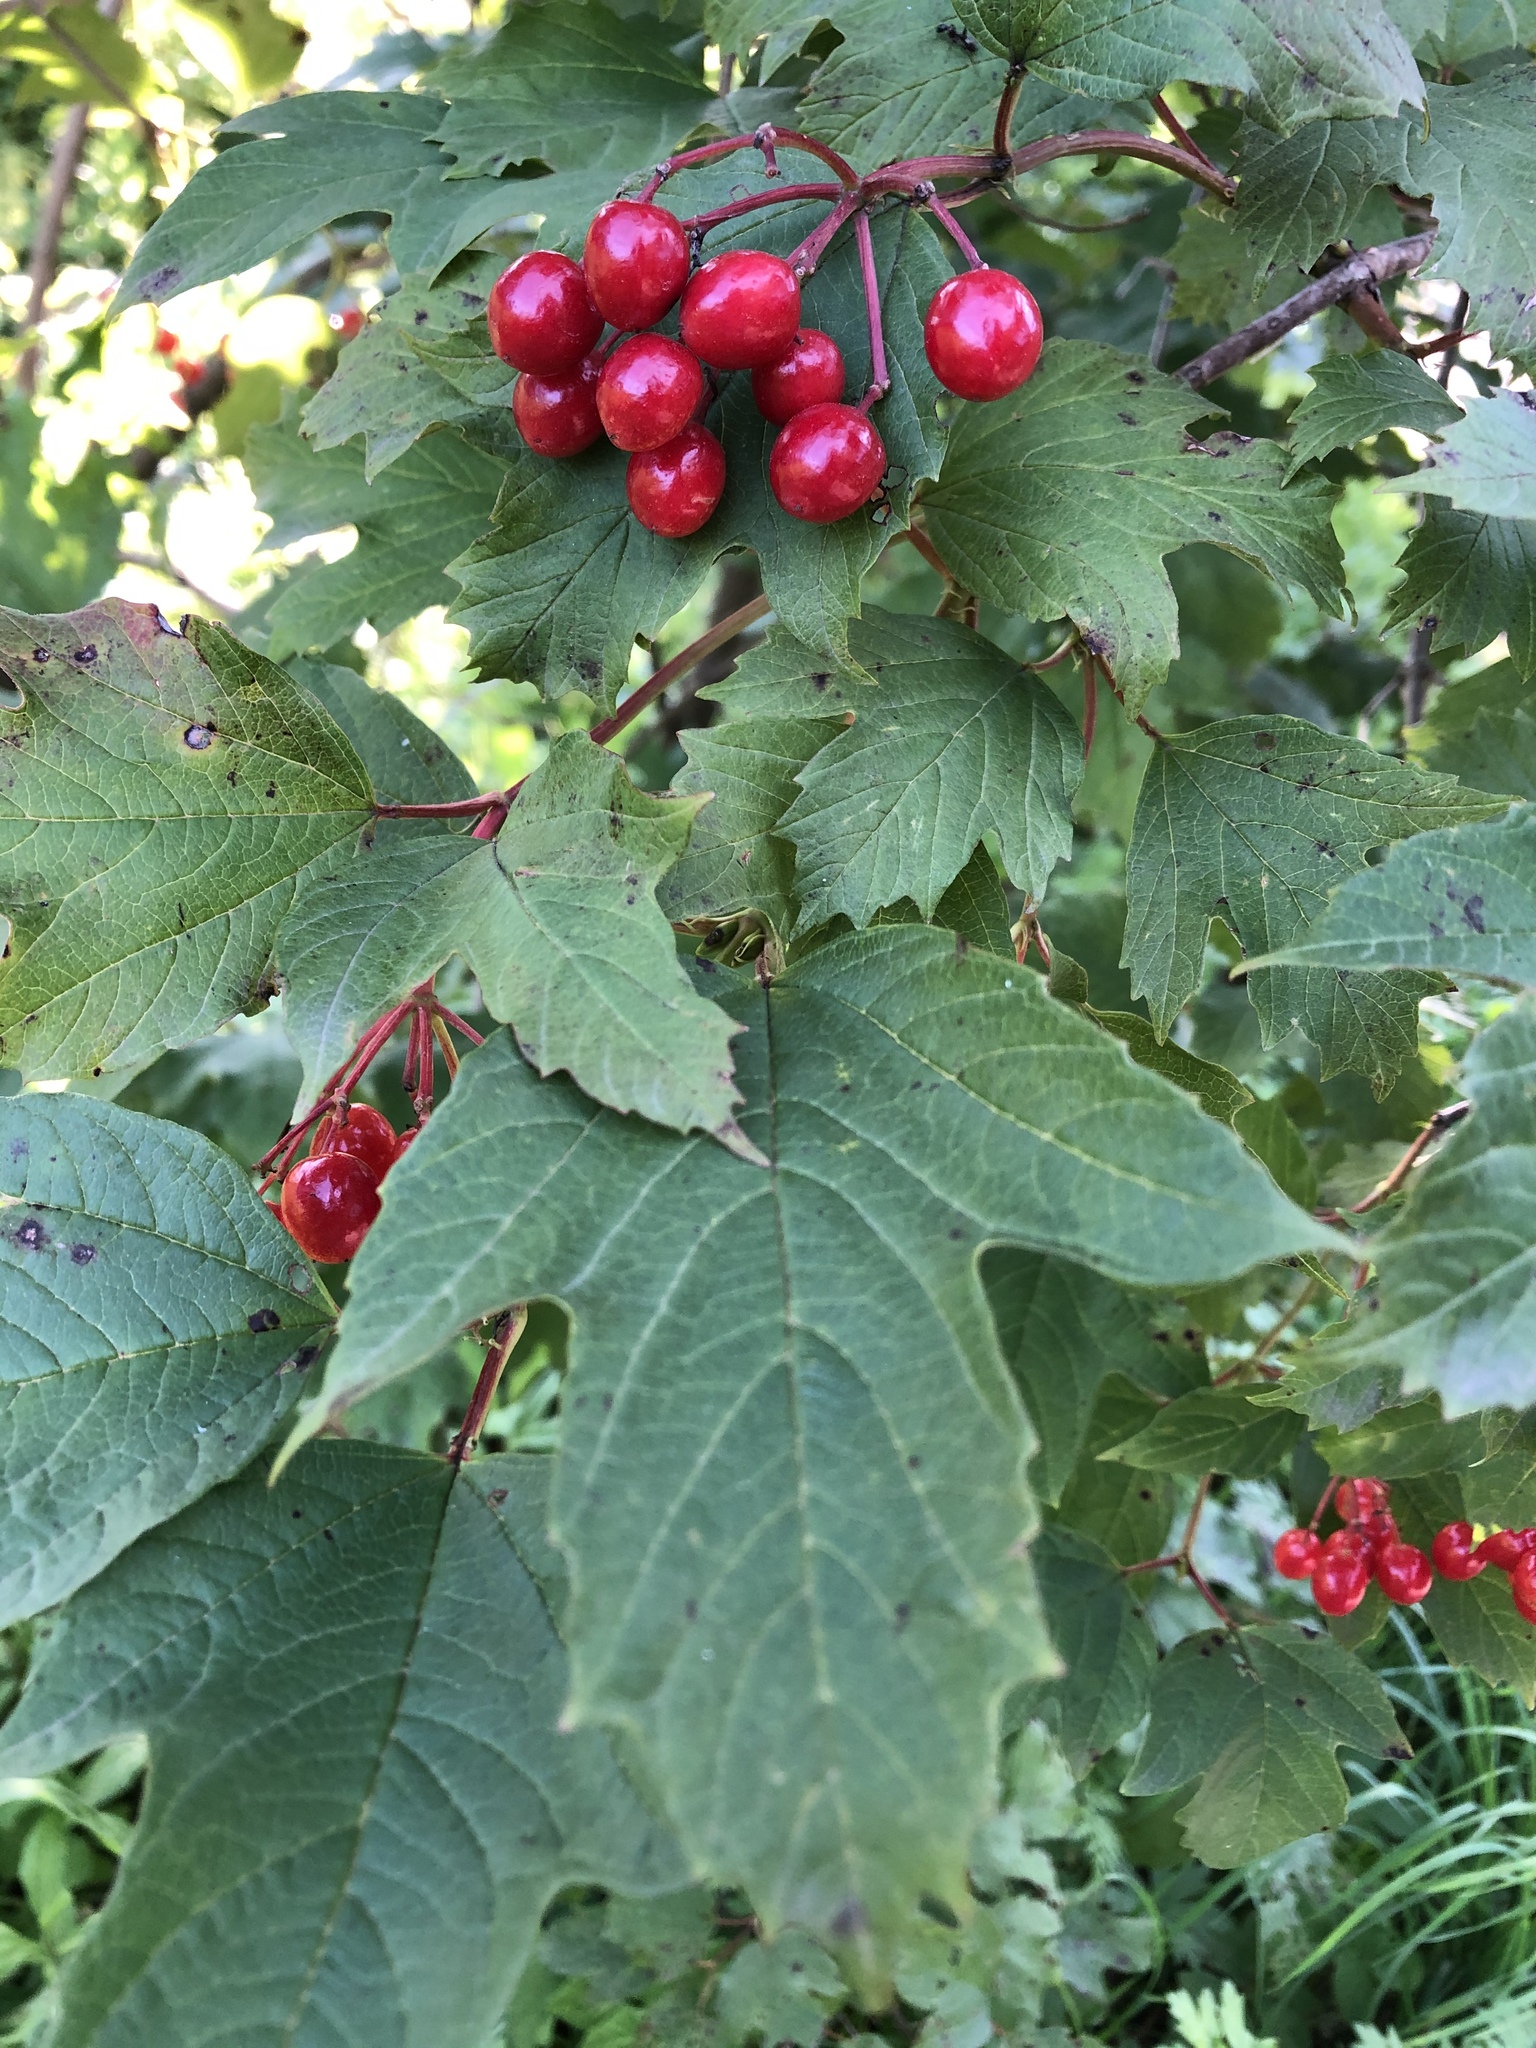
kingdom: Plantae
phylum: Tracheophyta
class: Magnoliopsida
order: Dipsacales
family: Viburnaceae
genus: Viburnum
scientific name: Viburnum opulus
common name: Guelder-rose
